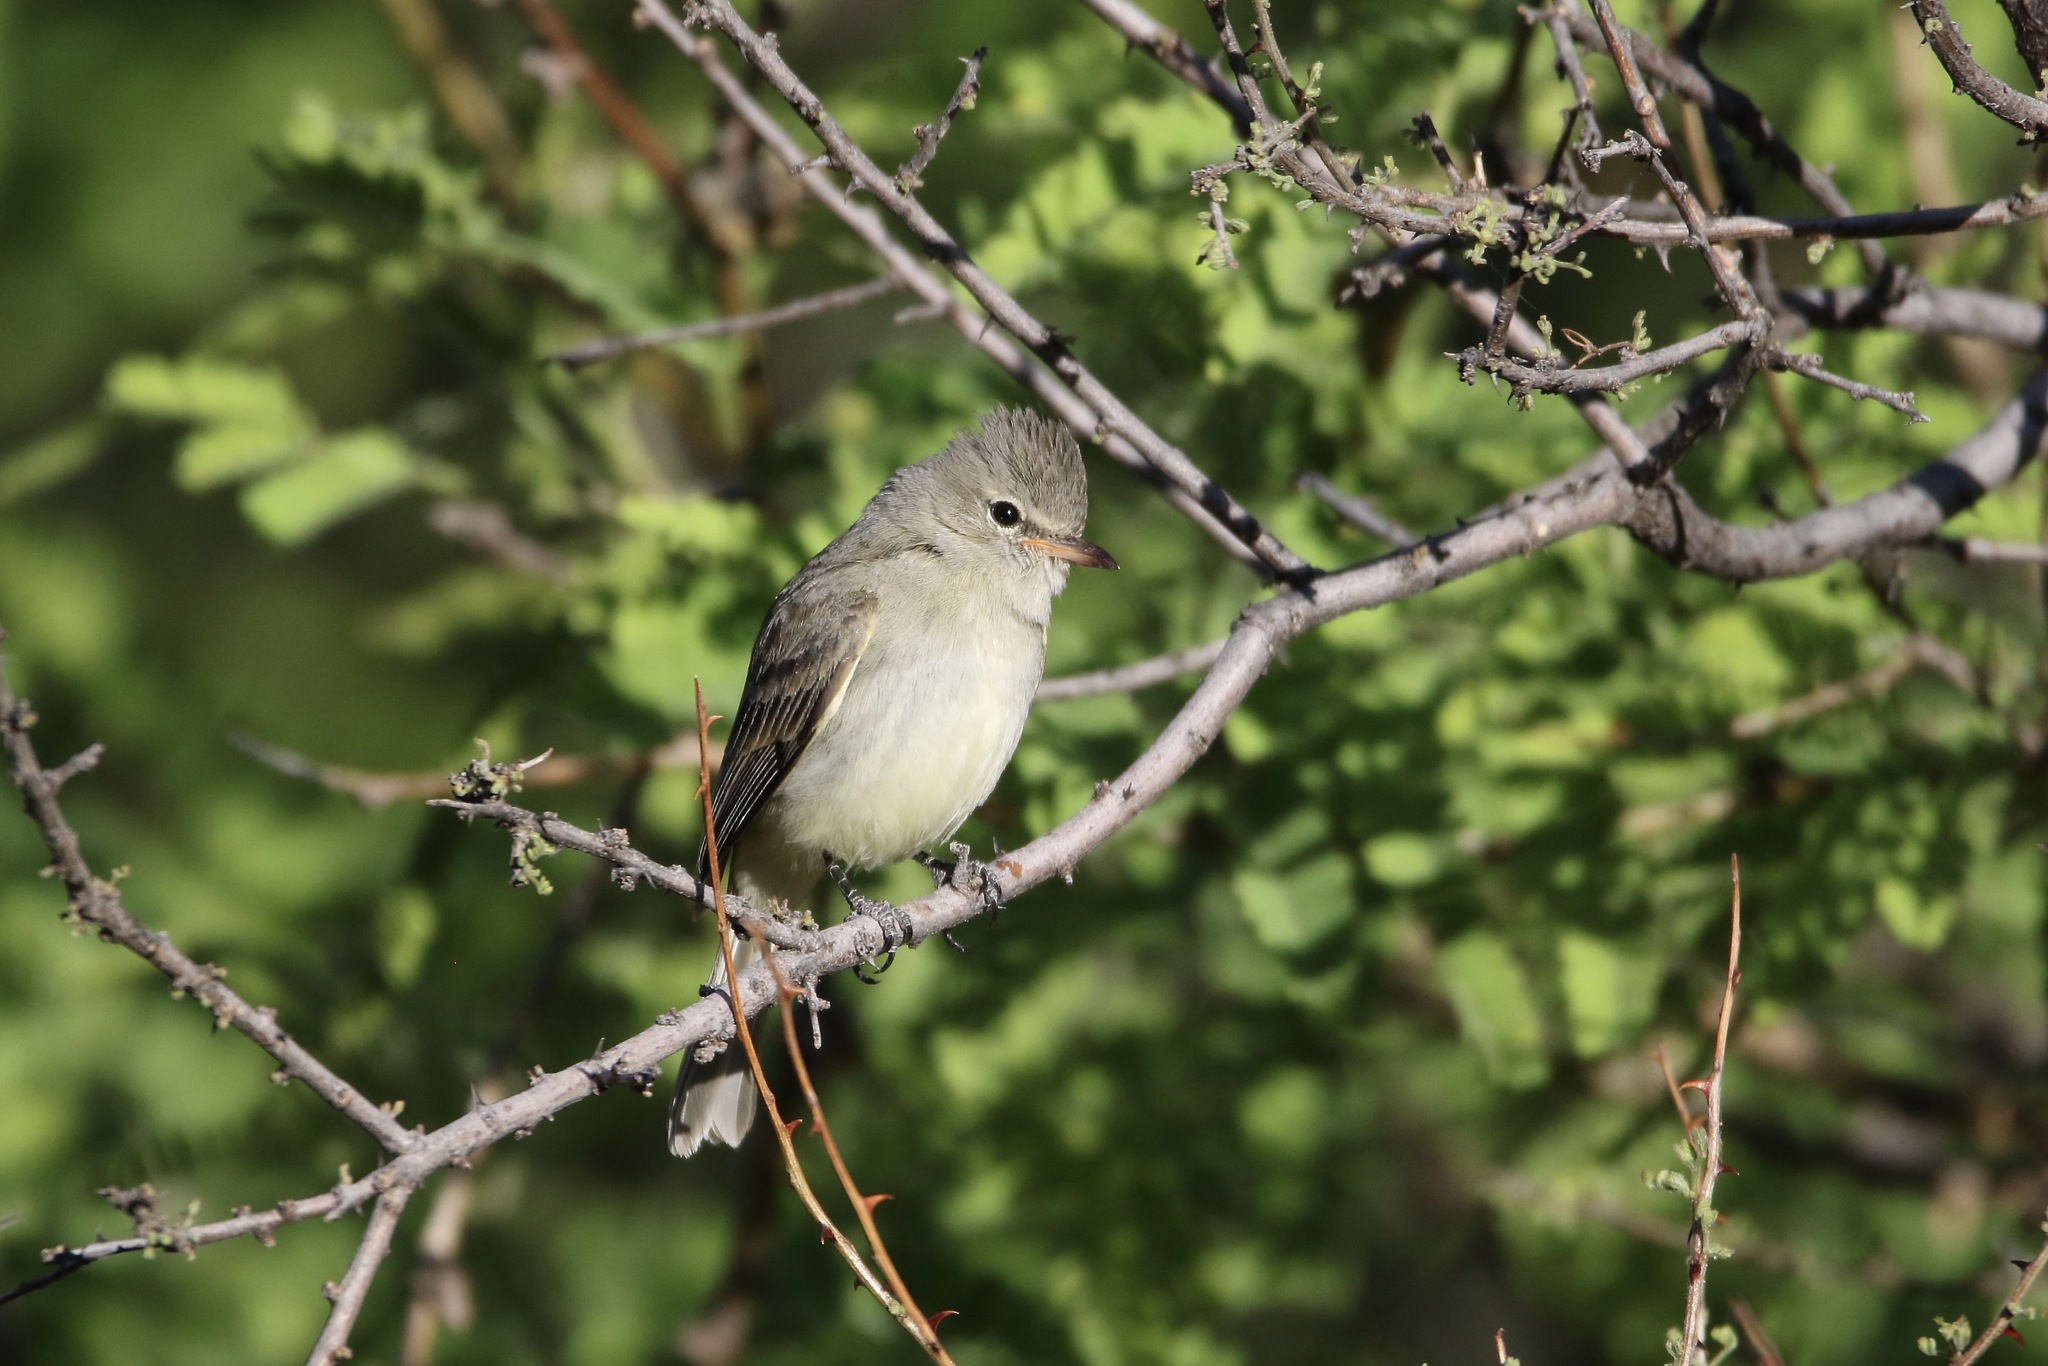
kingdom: Animalia
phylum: Chordata
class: Aves
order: Passeriformes
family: Tyrannidae
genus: Camptostoma
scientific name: Camptostoma imberbe
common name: Northern beardless-tyrannulet
